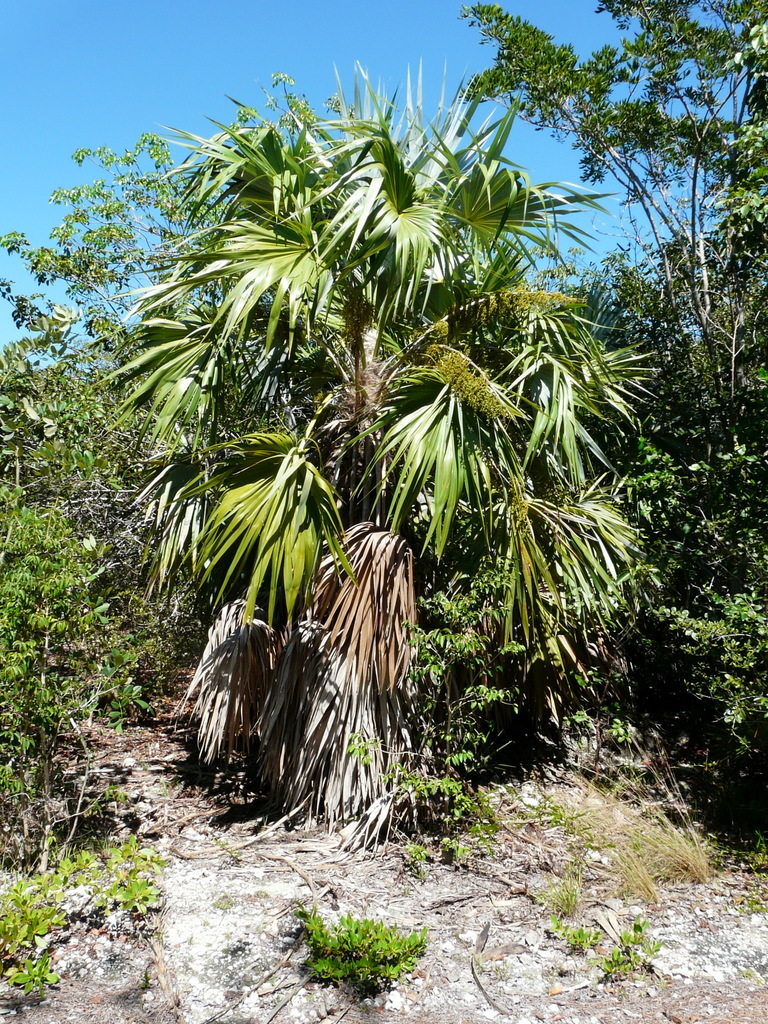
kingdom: Plantae
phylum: Tracheophyta
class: Liliopsida
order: Arecales
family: Arecaceae
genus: Leucothrinax
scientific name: Leucothrinax morrisii
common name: Key palm
